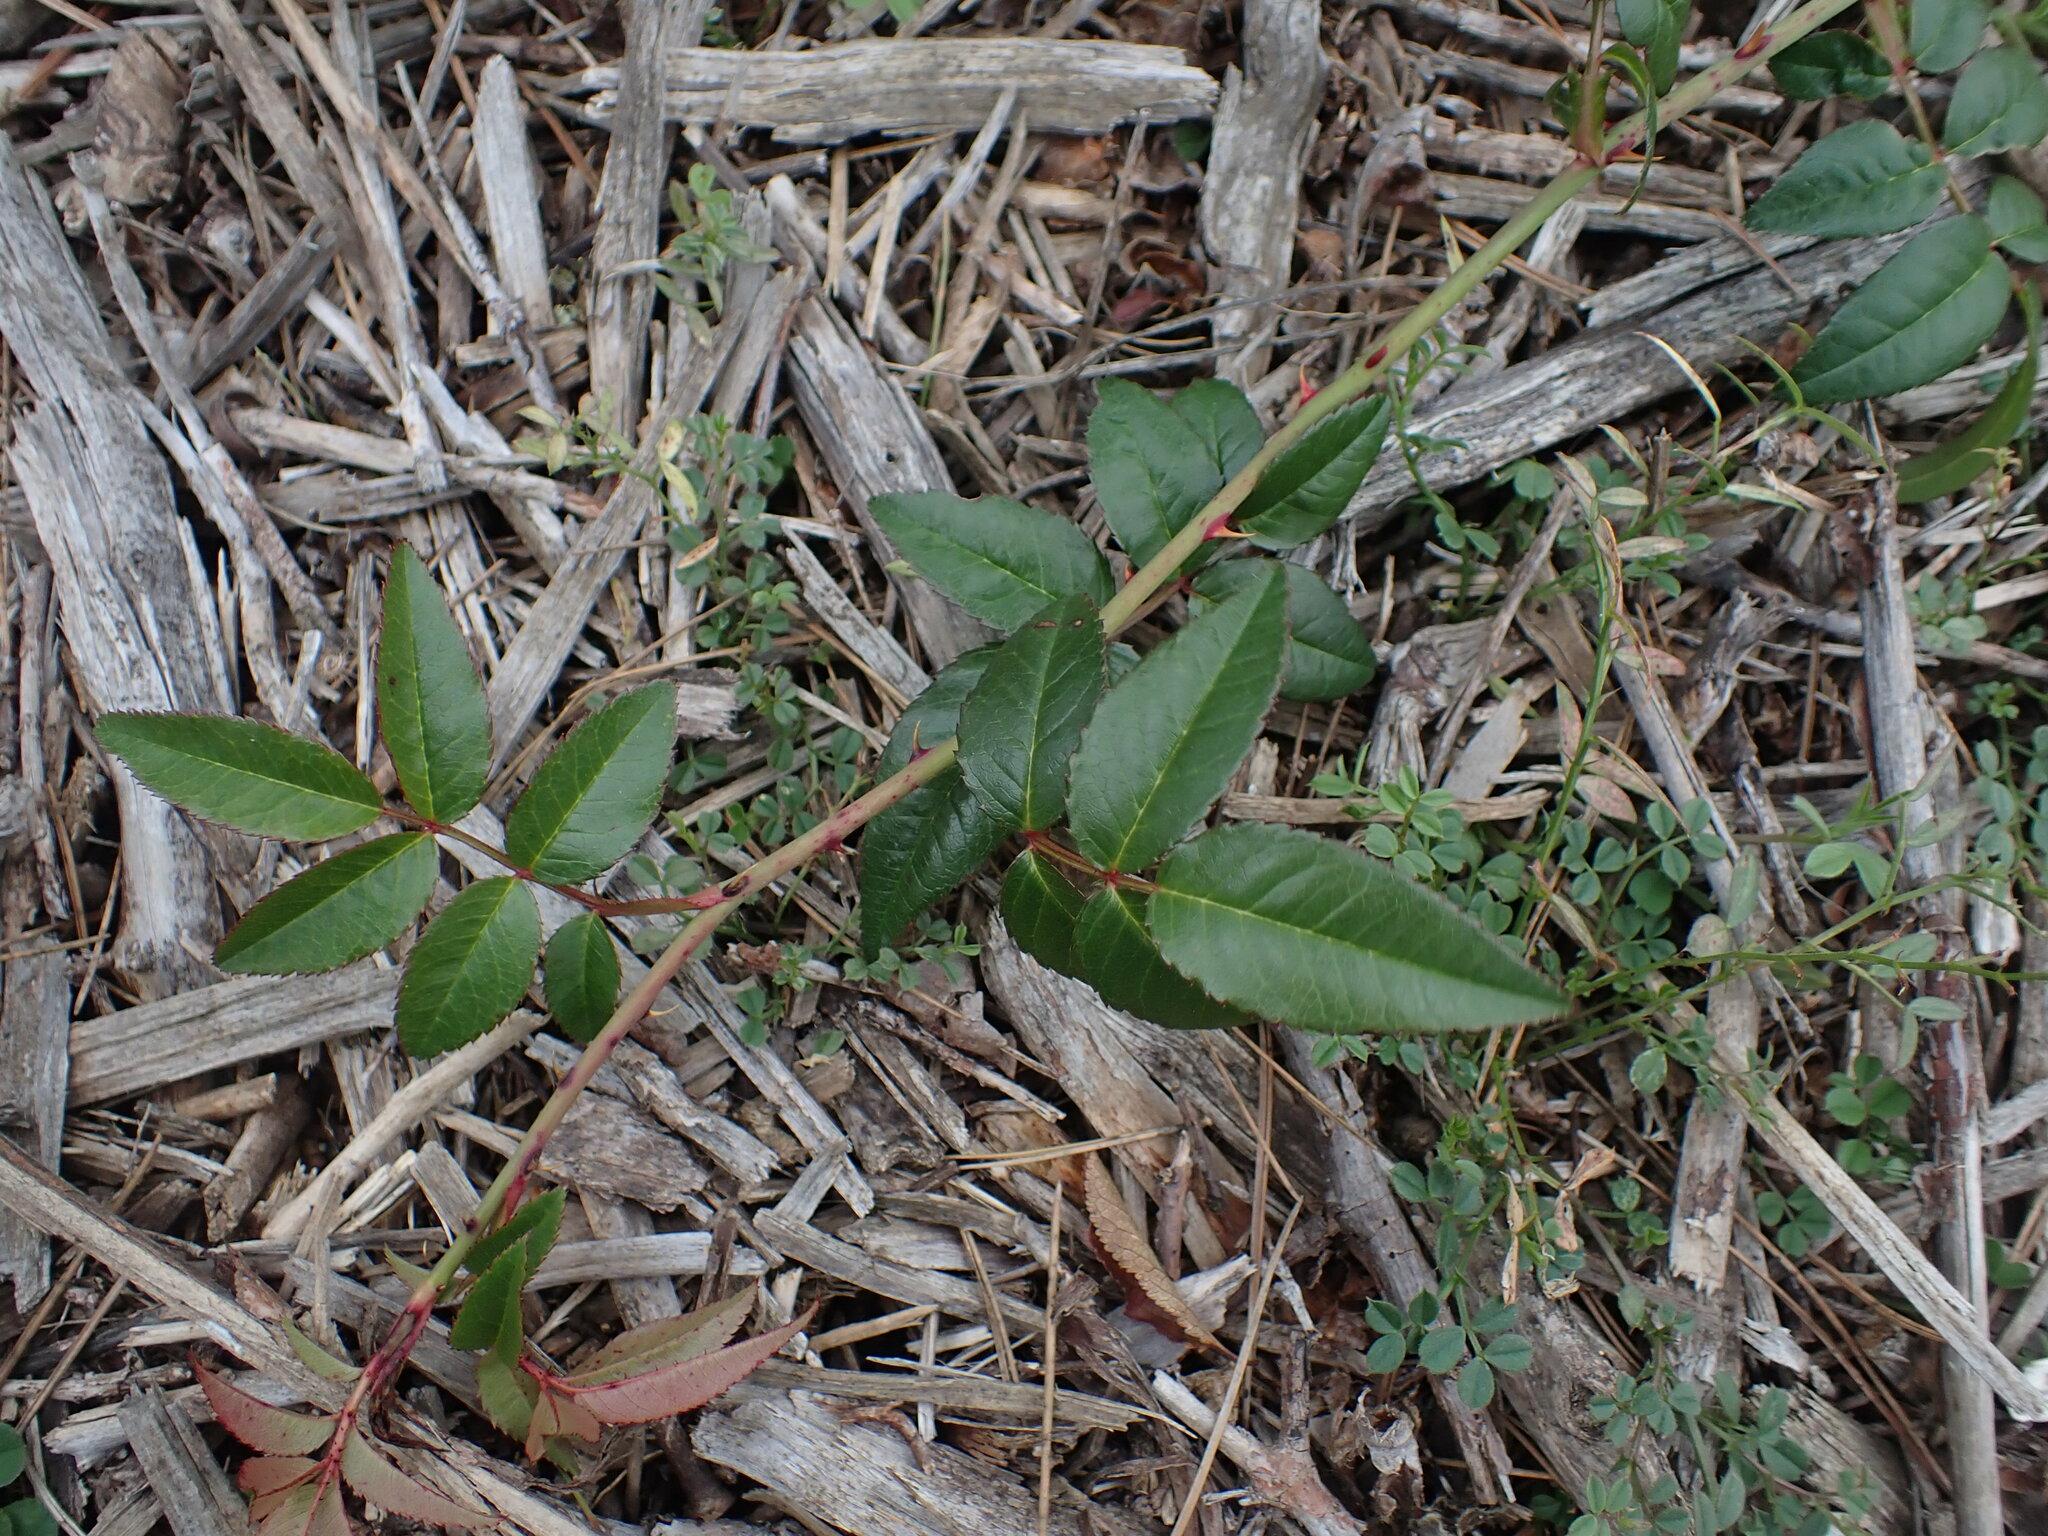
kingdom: Plantae
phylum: Tracheophyta
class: Magnoliopsida
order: Rosales
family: Rosaceae
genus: Rosa
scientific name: Rosa sempervirens
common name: Evergreen rose
